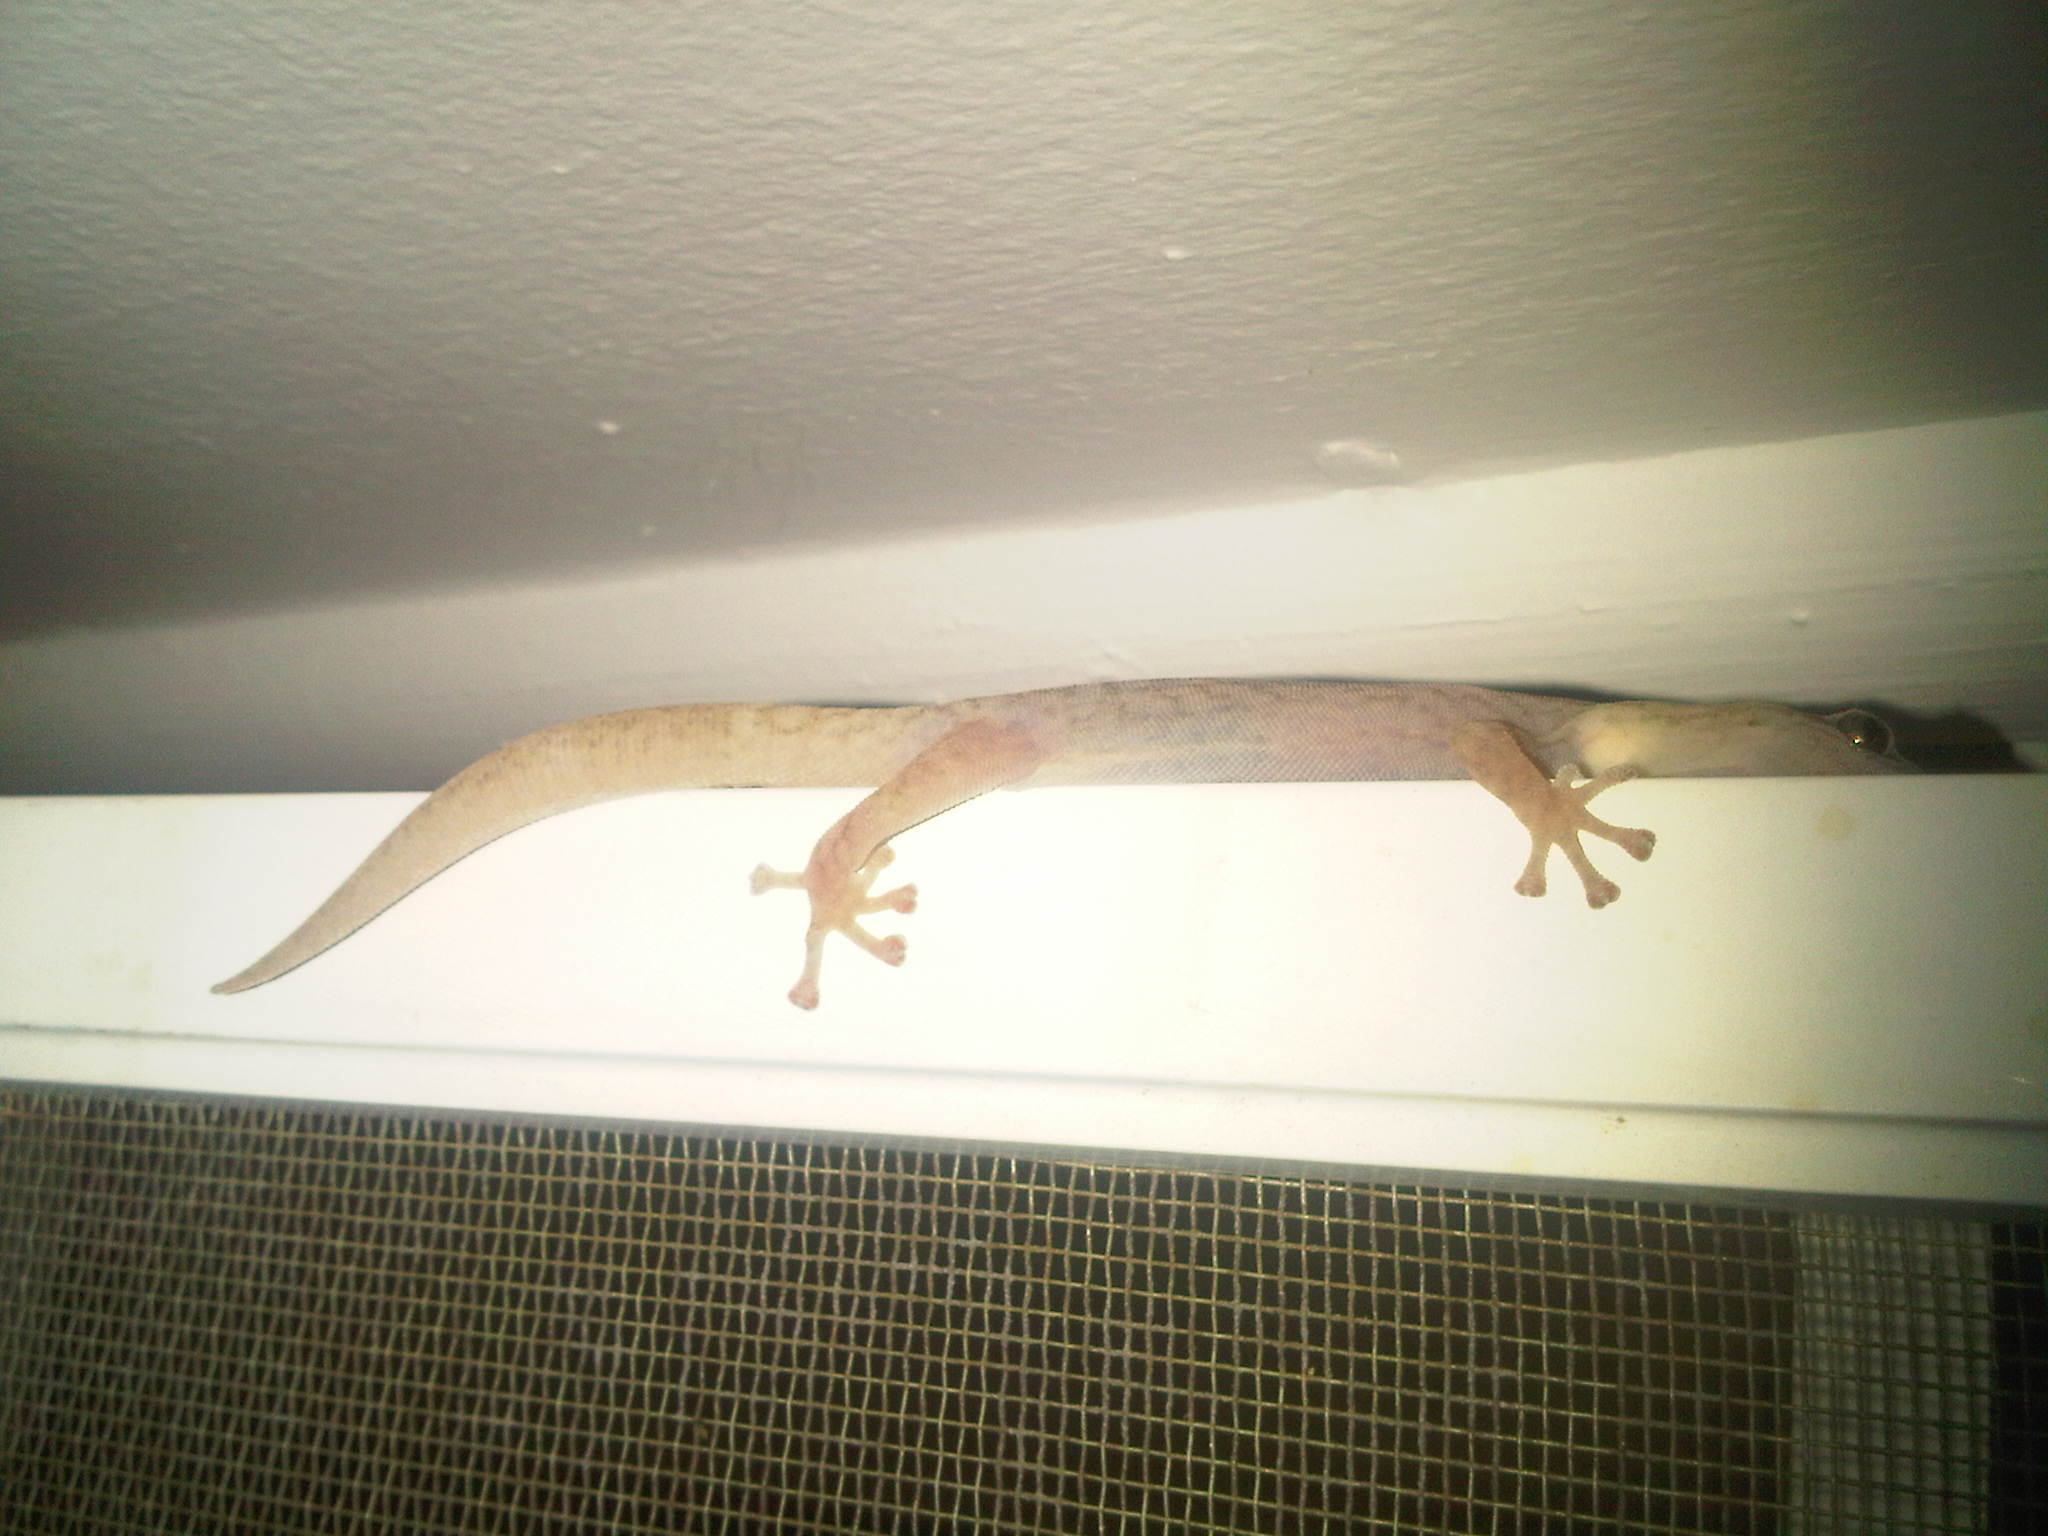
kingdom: Animalia
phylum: Chordata
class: Squamata
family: Gekkonidae
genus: Christinus
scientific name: Christinus marmoratus
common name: Marbled gecko
